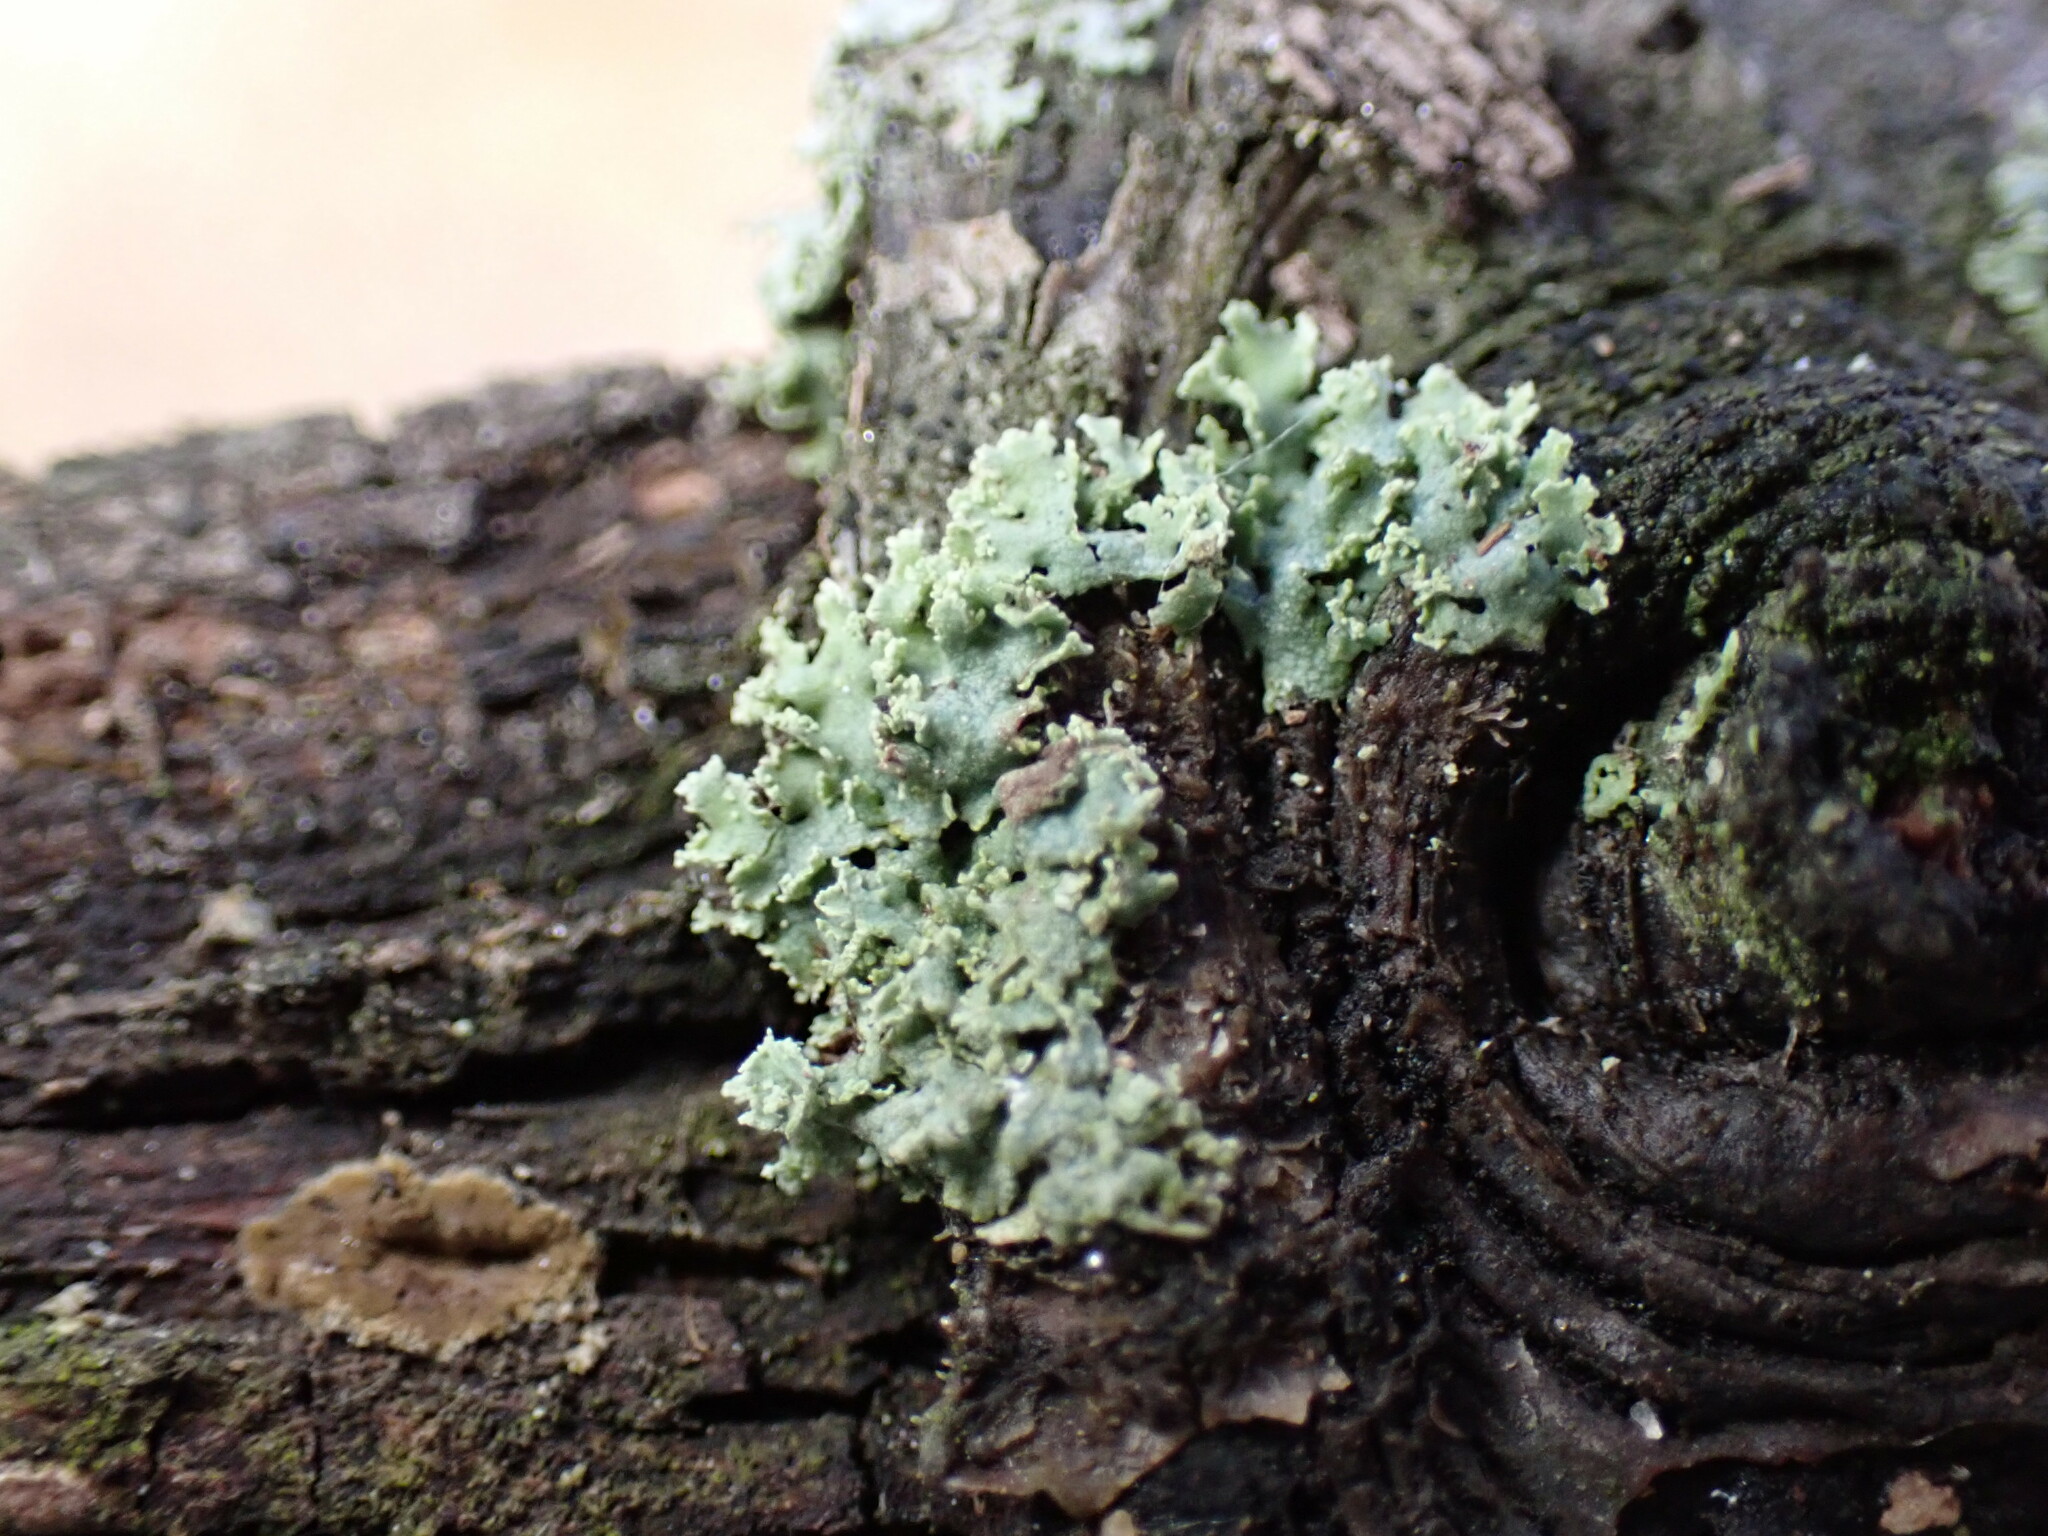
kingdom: Fungi
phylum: Ascomycota
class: Lecanoromycetes
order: Caliciales
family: Physciaceae
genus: Physcia
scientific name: Physcia millegrana
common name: Rosette lichen
